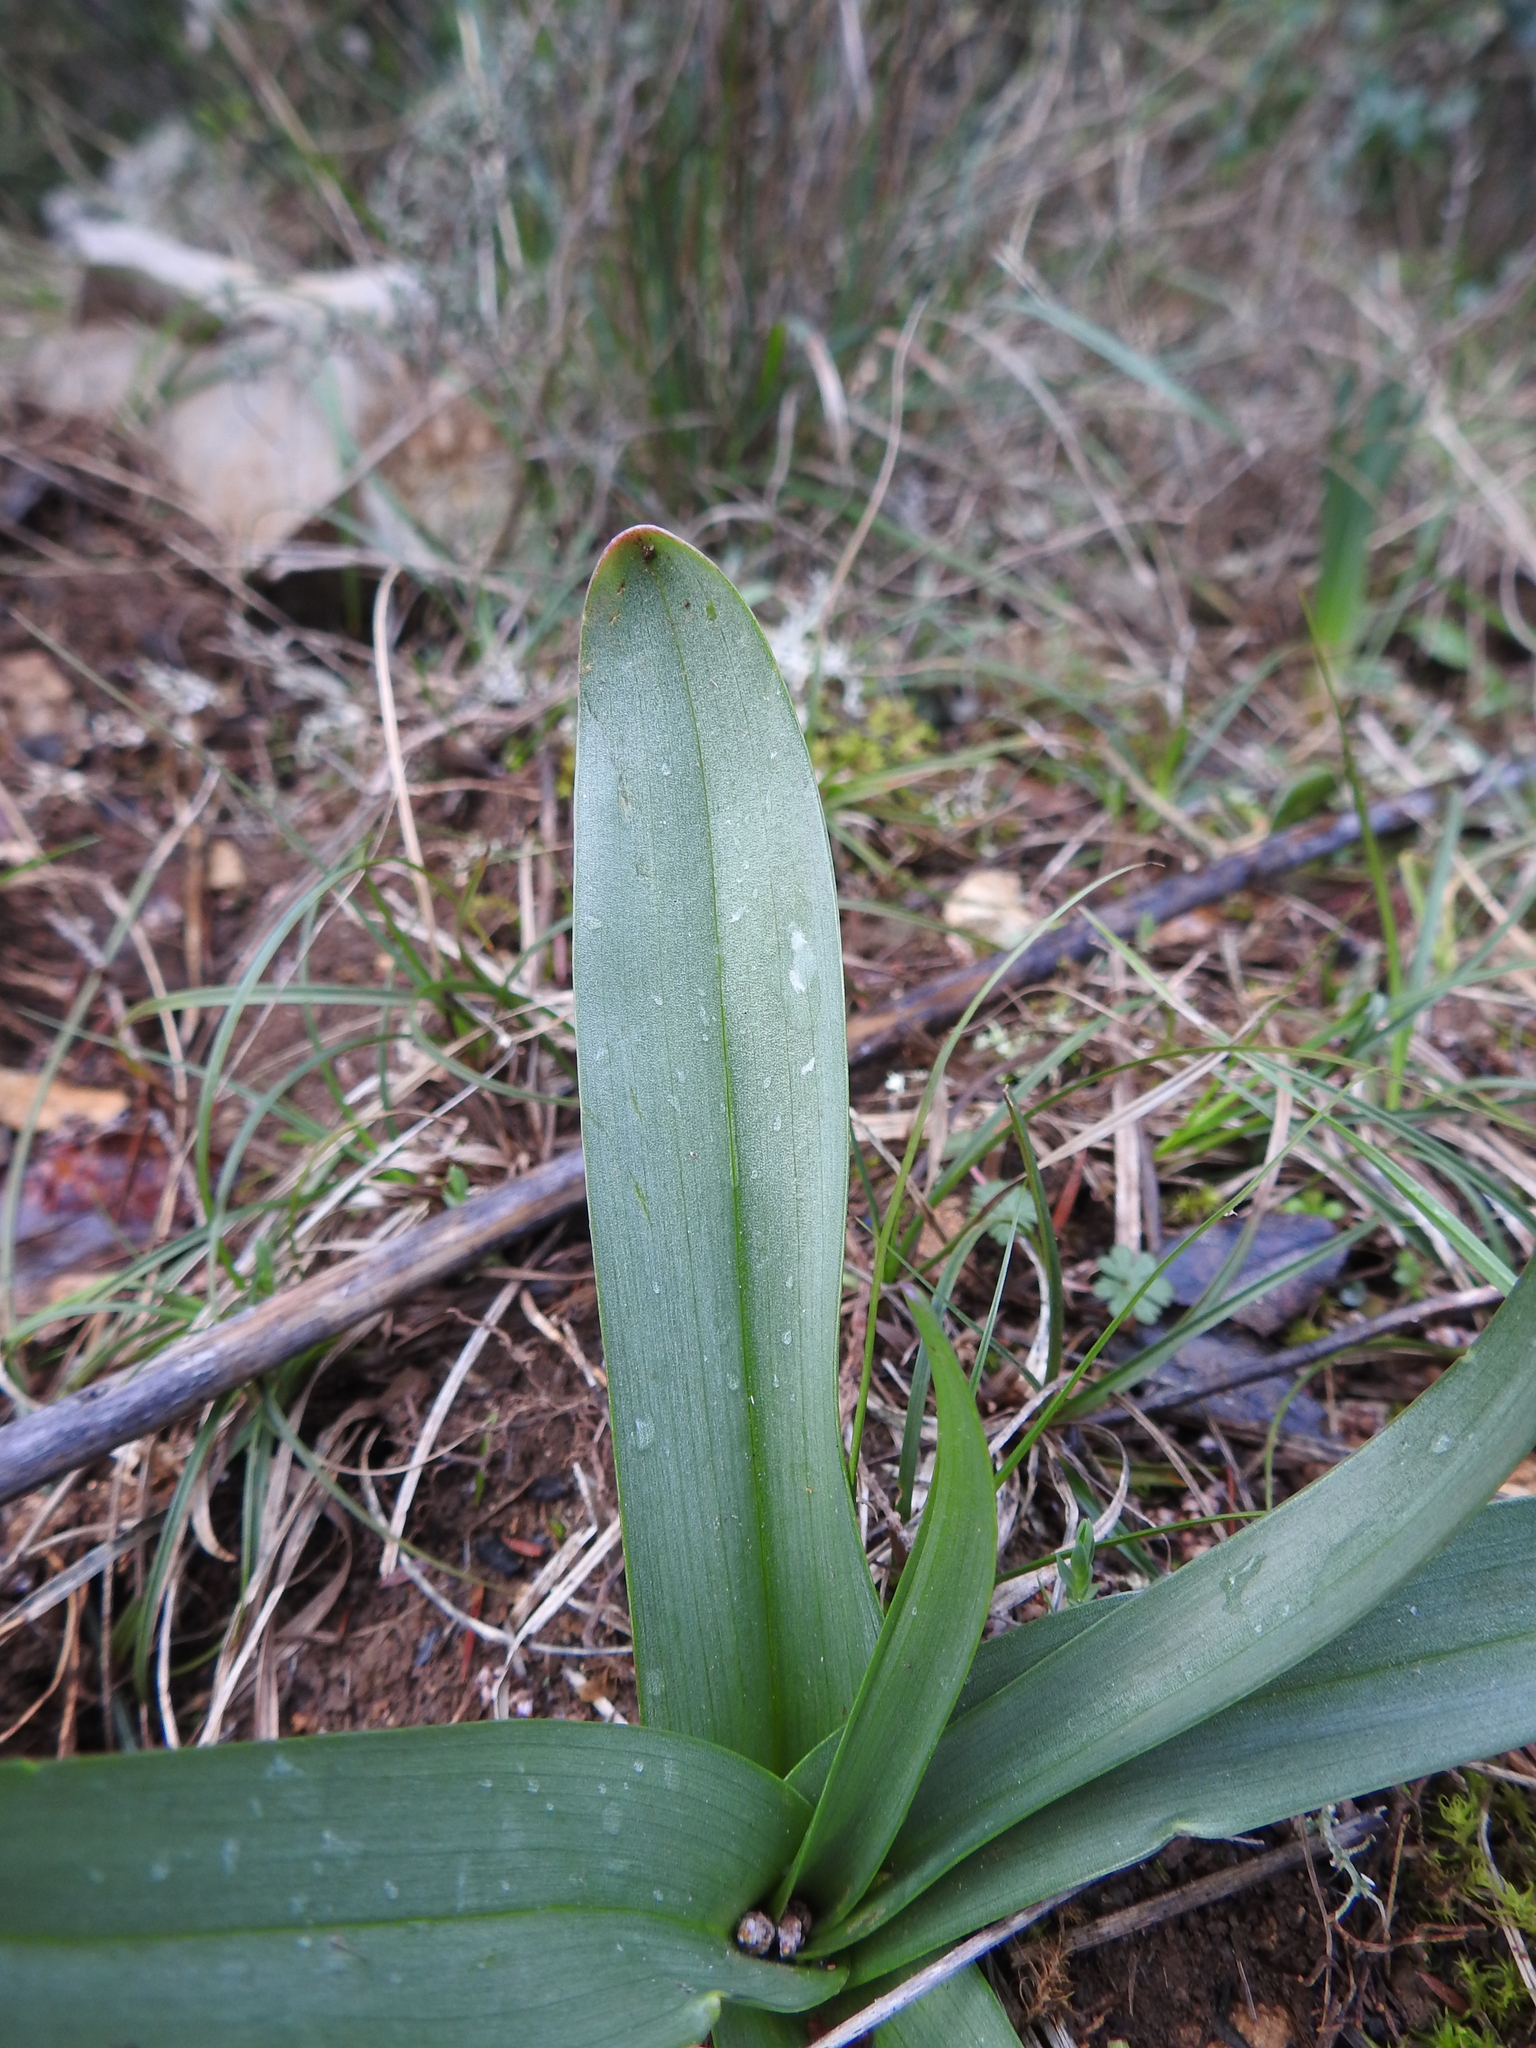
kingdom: Plantae
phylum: Tracheophyta
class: Liliopsida
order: Liliales
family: Colchicaceae
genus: Colchicum
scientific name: Colchicum longifolium
